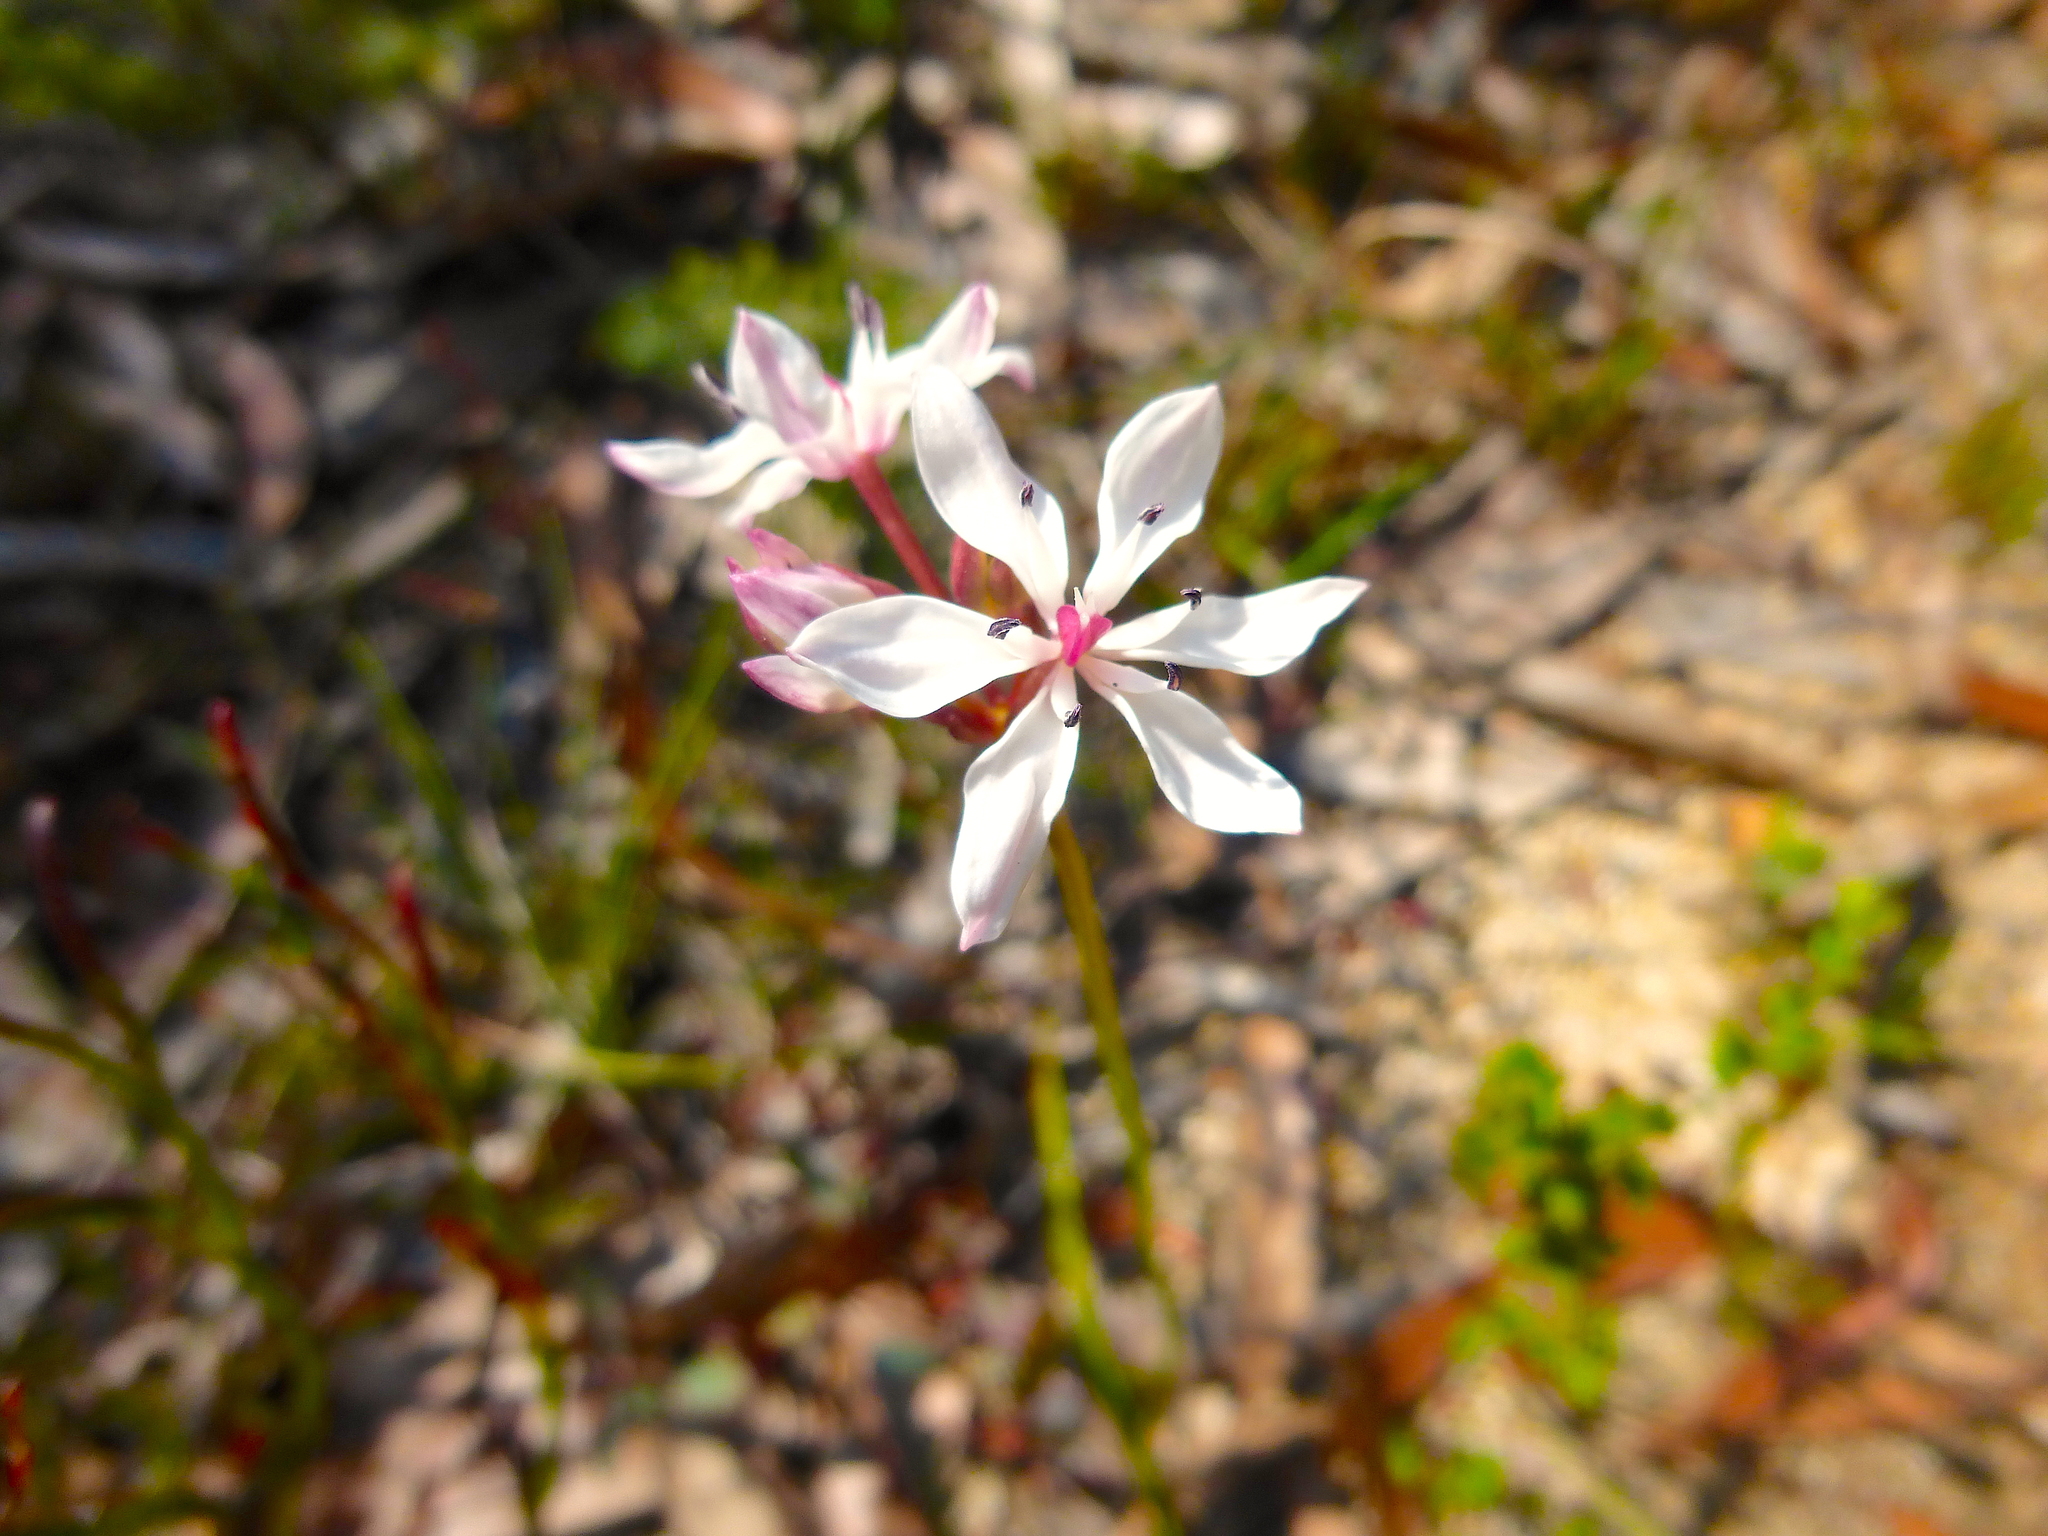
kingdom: Plantae
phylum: Tracheophyta
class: Liliopsida
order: Liliales
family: Colchicaceae
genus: Burchardia
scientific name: Burchardia umbellata
